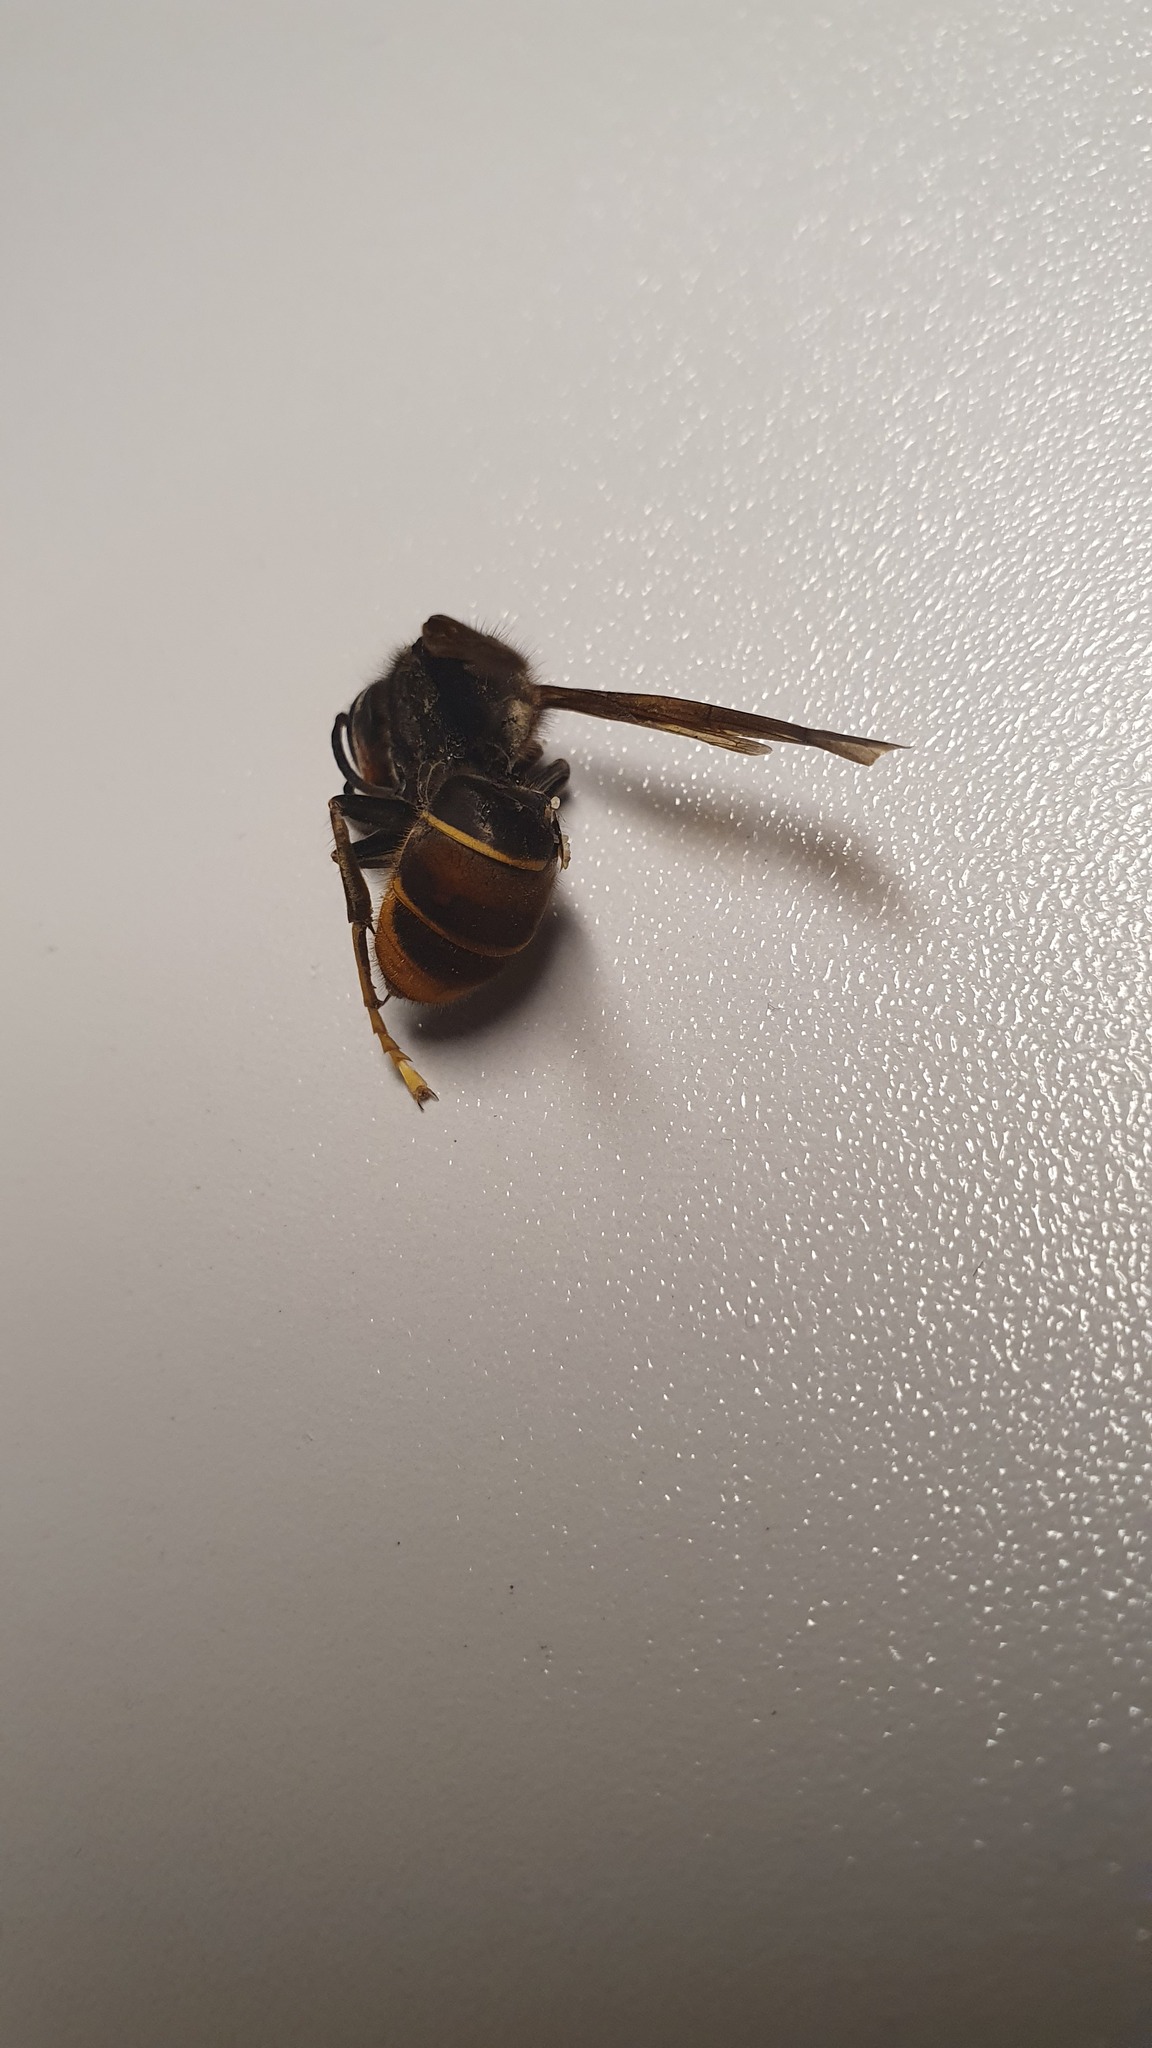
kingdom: Animalia
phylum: Arthropoda
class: Insecta
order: Hymenoptera
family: Vespidae
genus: Vespa
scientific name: Vespa velutina
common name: Asian hornet
